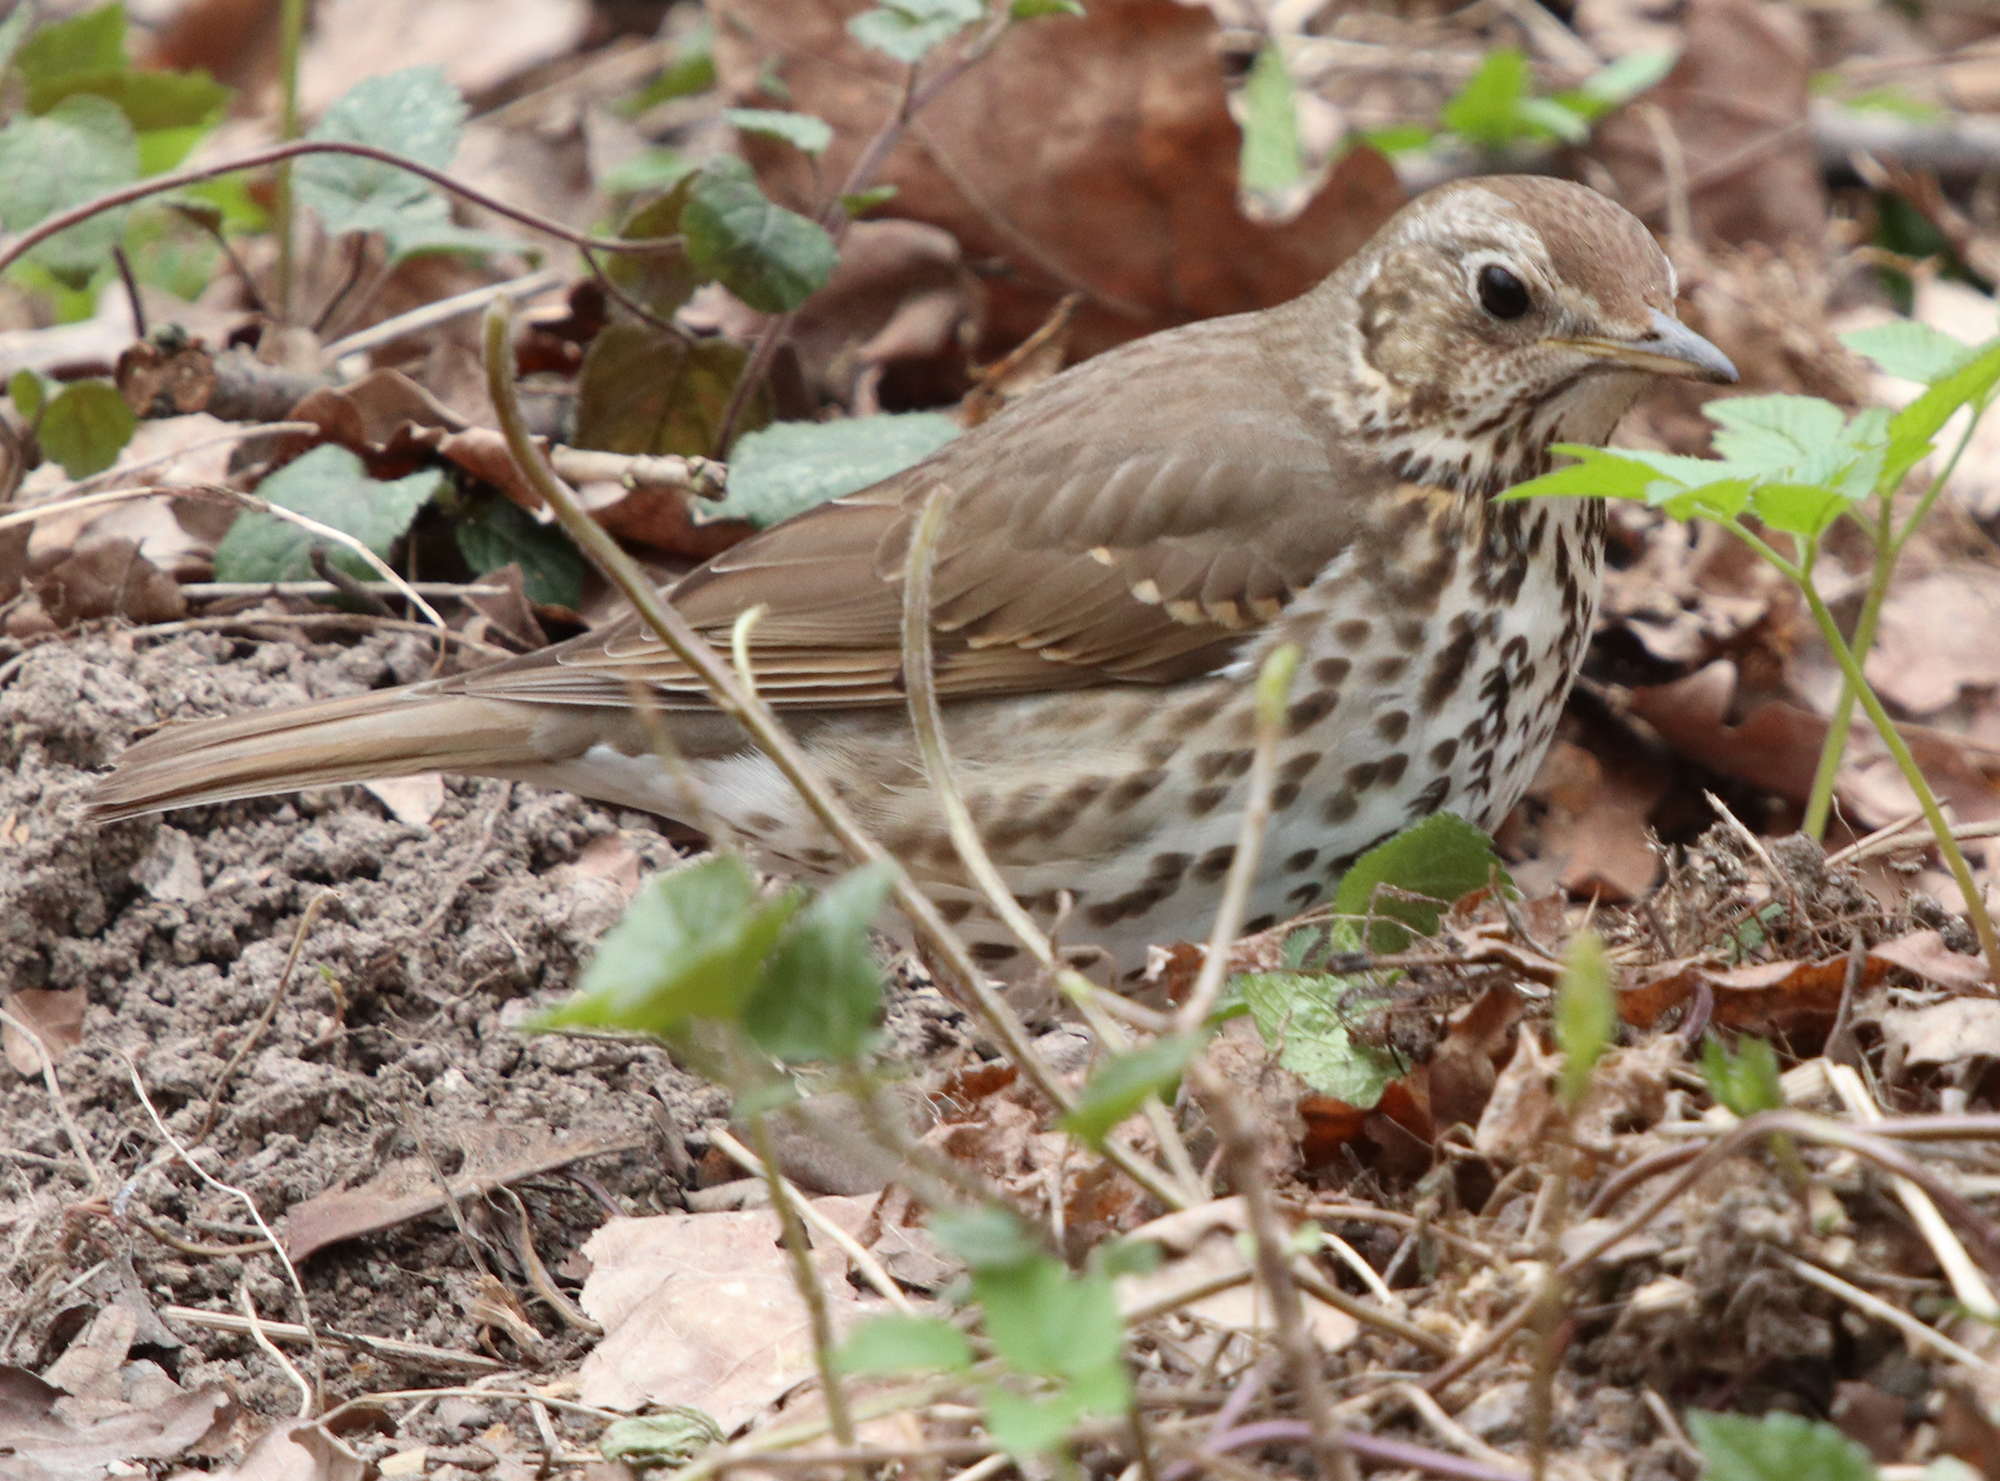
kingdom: Animalia
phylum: Chordata
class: Aves
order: Passeriformes
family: Turdidae
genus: Turdus
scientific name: Turdus philomelos
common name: Song thrush
